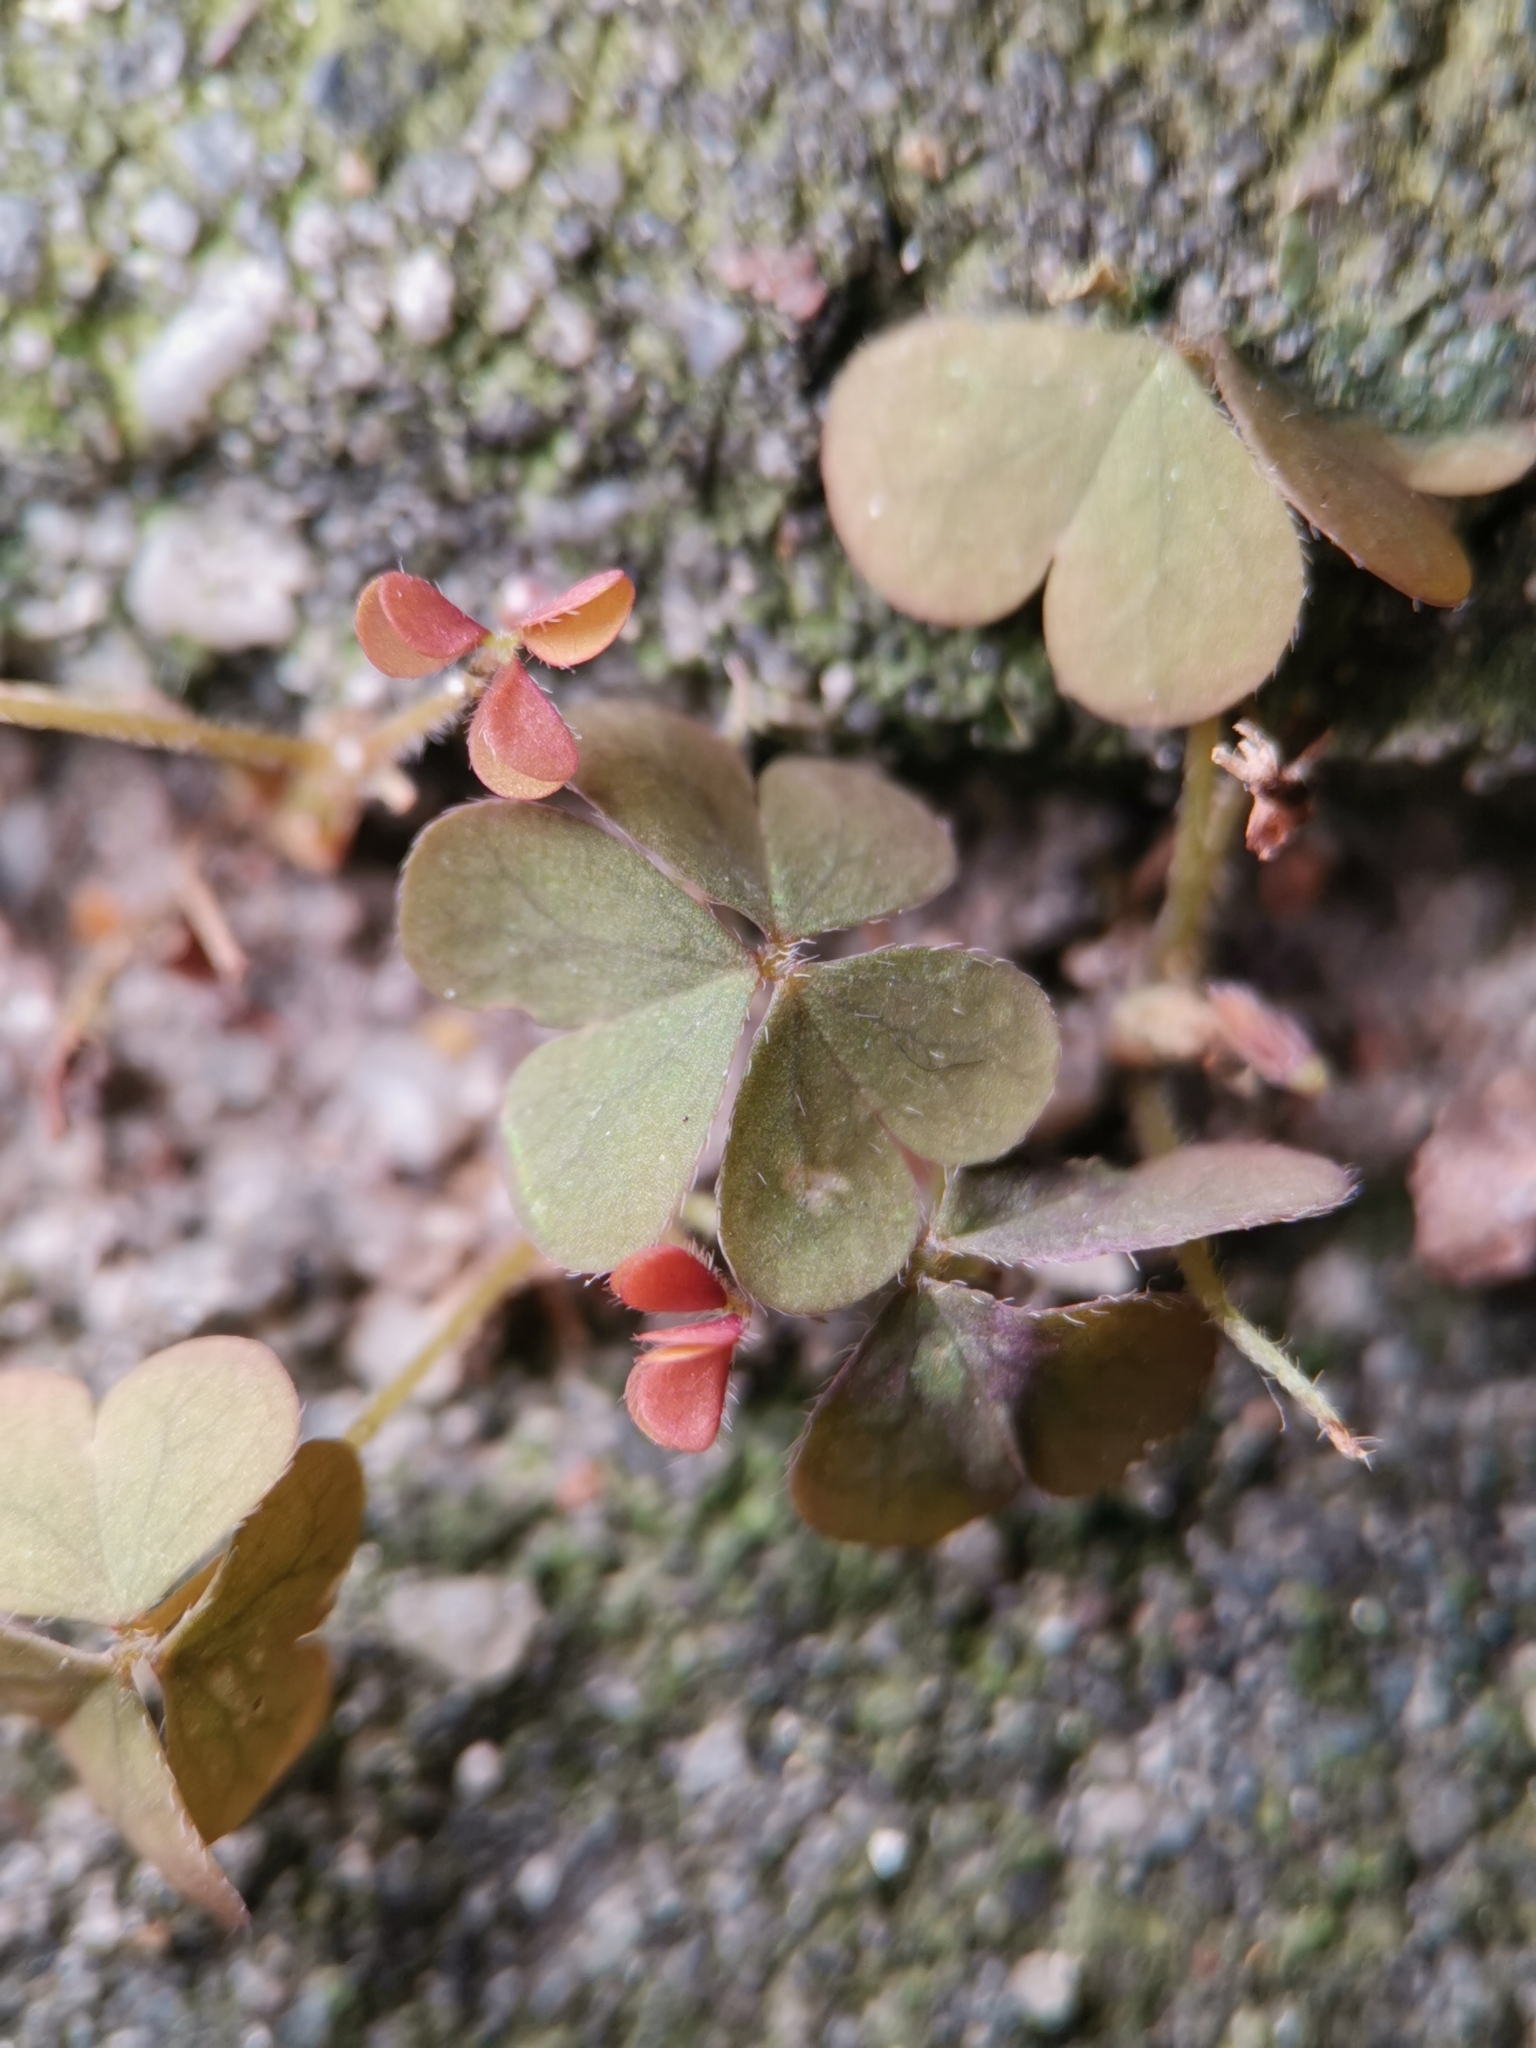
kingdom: Plantae
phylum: Tracheophyta
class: Magnoliopsida
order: Oxalidales
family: Oxalidaceae
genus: Oxalis
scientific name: Oxalis corniculata
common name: Procumbent yellow-sorrel
